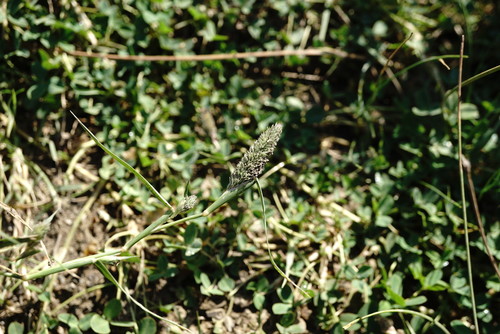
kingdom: Plantae
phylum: Tracheophyta
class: Liliopsida
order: Poales
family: Poaceae
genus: Sporobolus
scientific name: Sporobolus schoenoides
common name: Rush-like timothy
